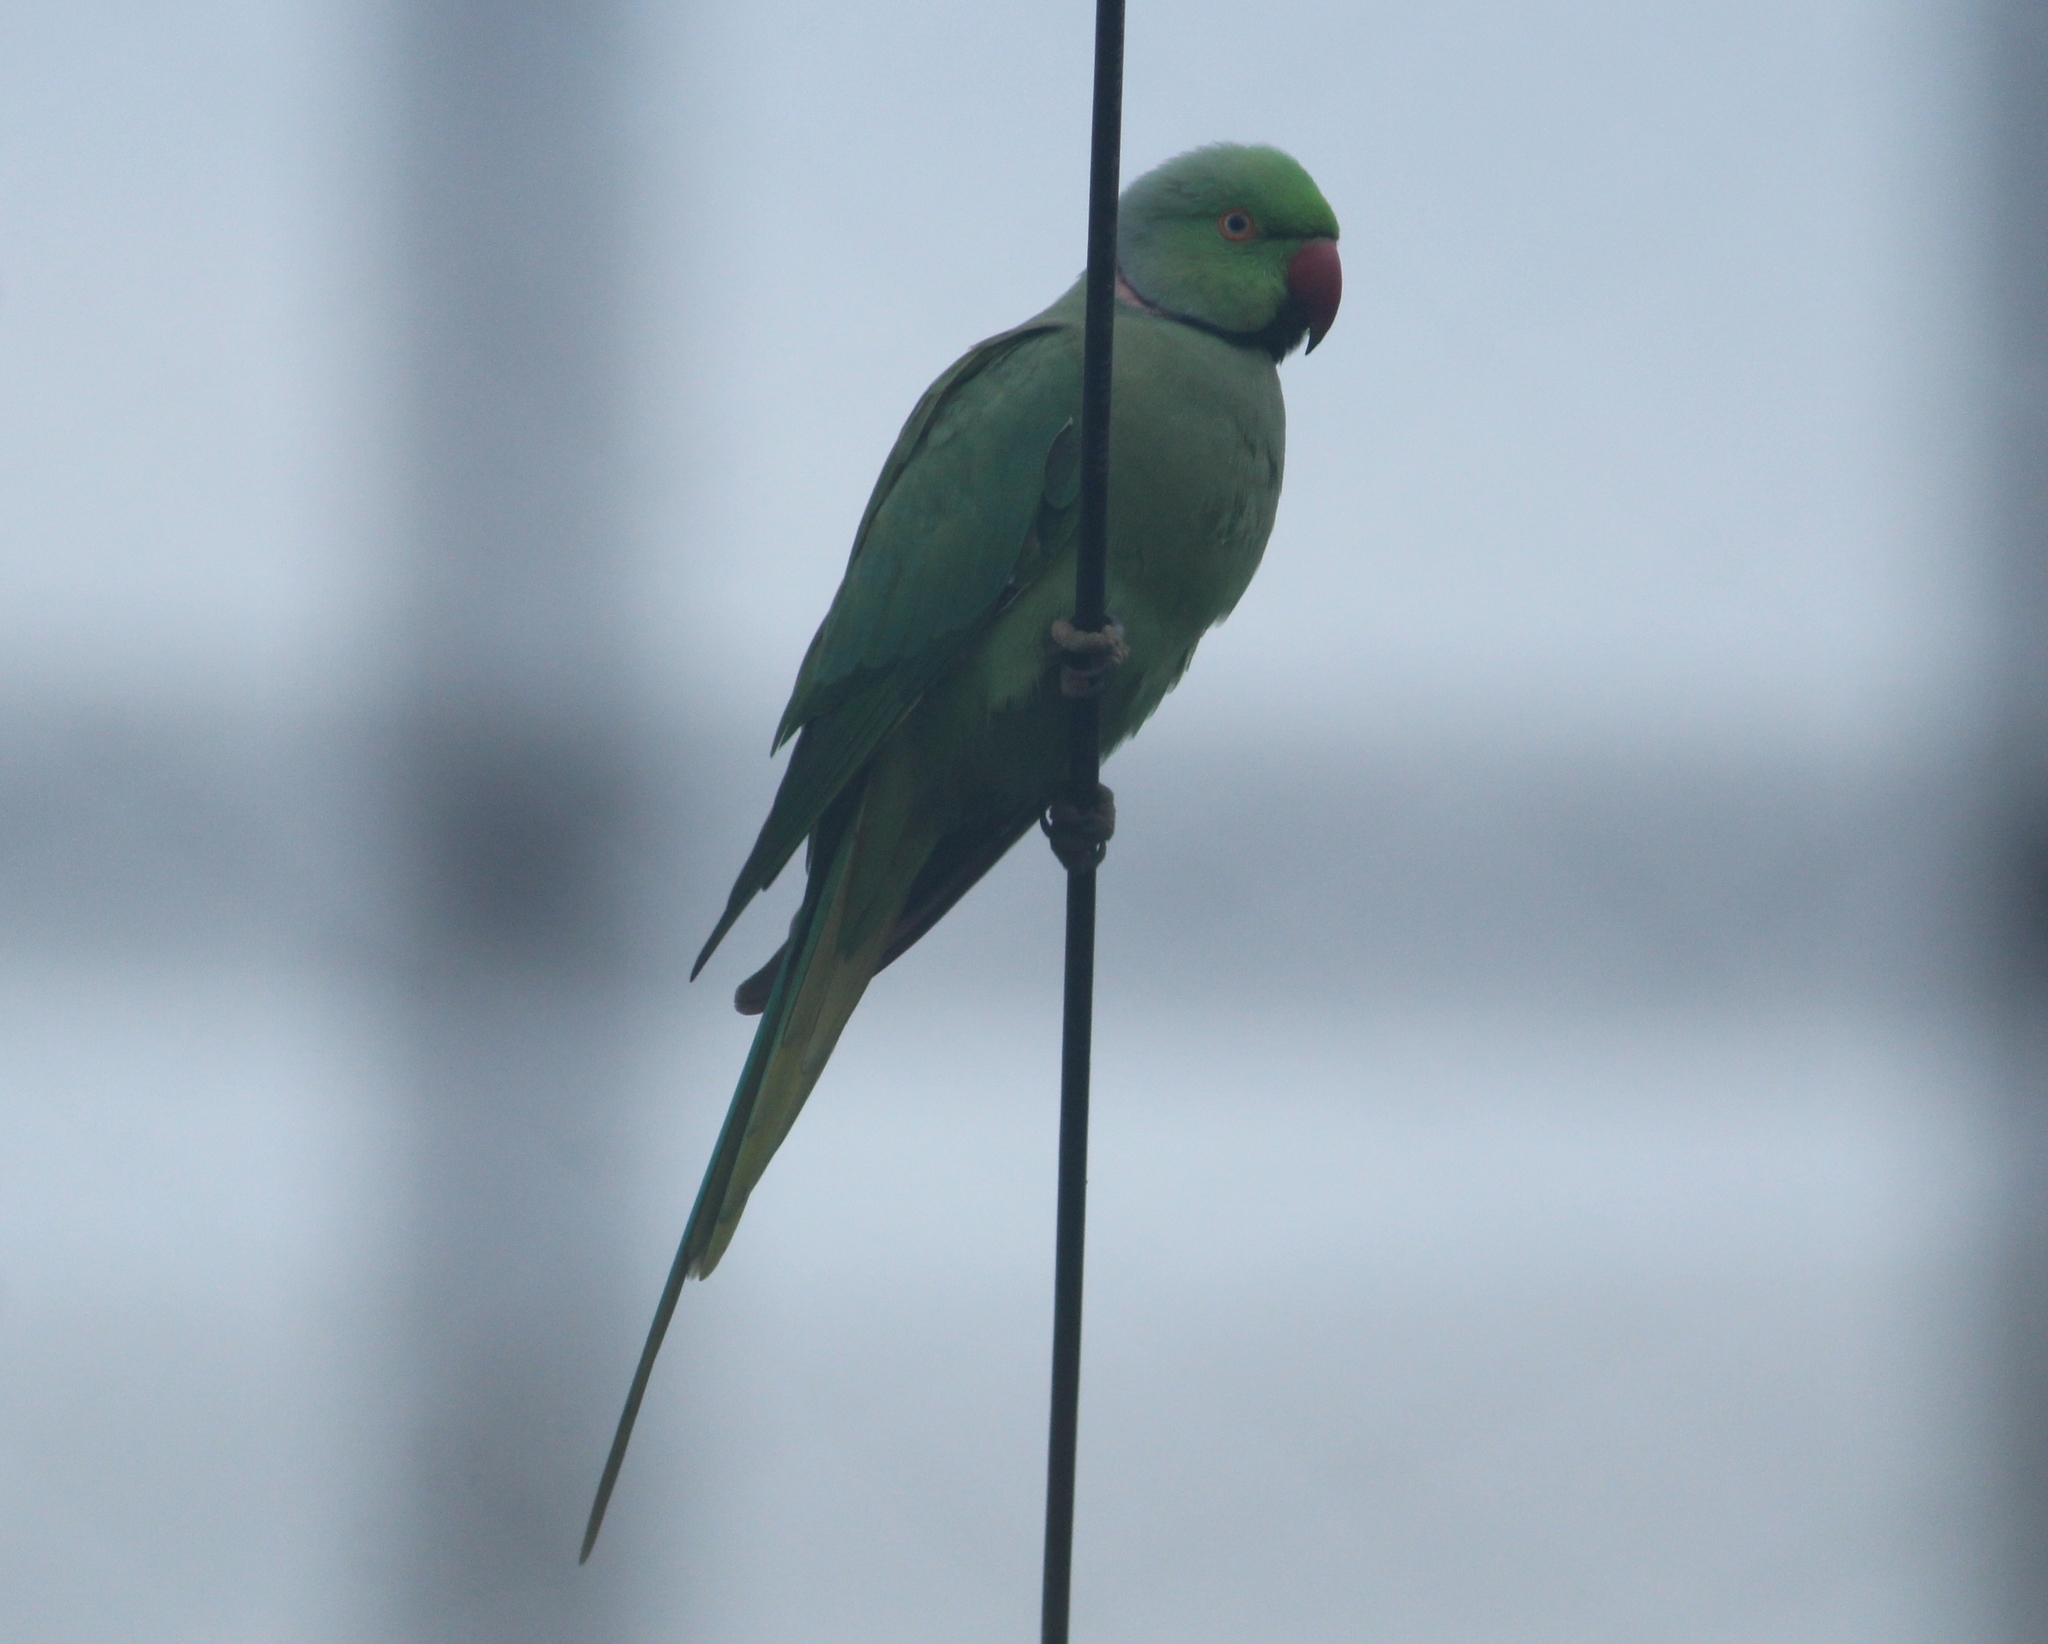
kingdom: Animalia
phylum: Chordata
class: Aves
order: Psittaciformes
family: Psittacidae
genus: Psittacula
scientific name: Psittacula krameri
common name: Rose-ringed parakeet
